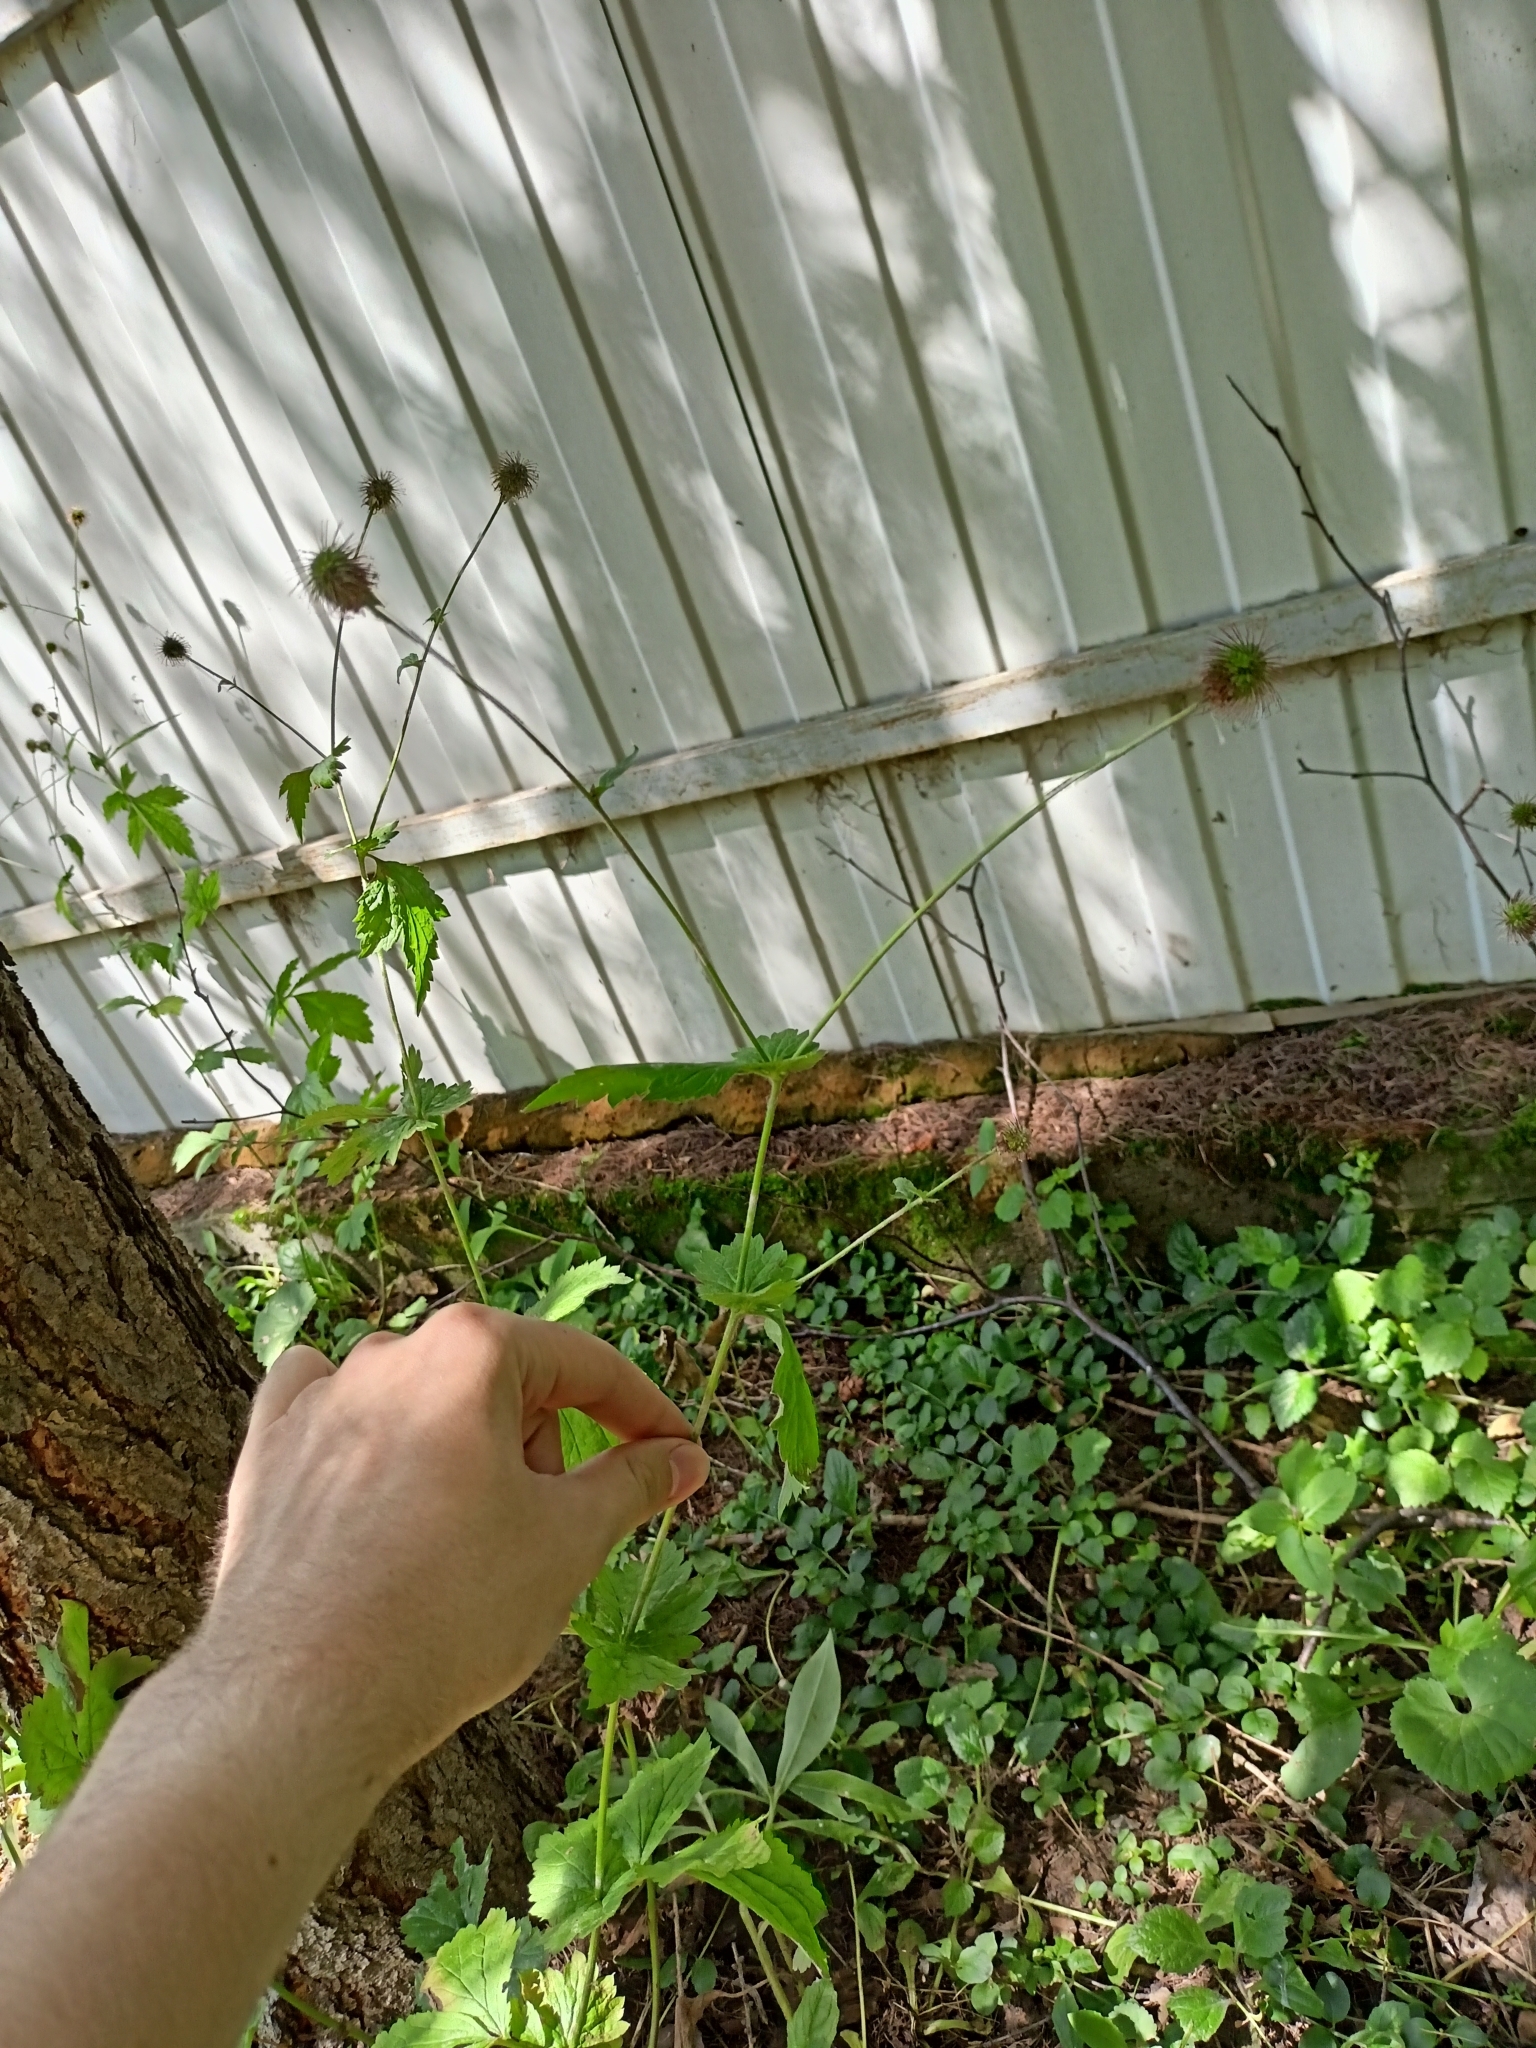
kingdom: Plantae
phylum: Tracheophyta
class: Magnoliopsida
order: Rosales
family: Rosaceae
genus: Geum
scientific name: Geum urbanum
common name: Wood avens
